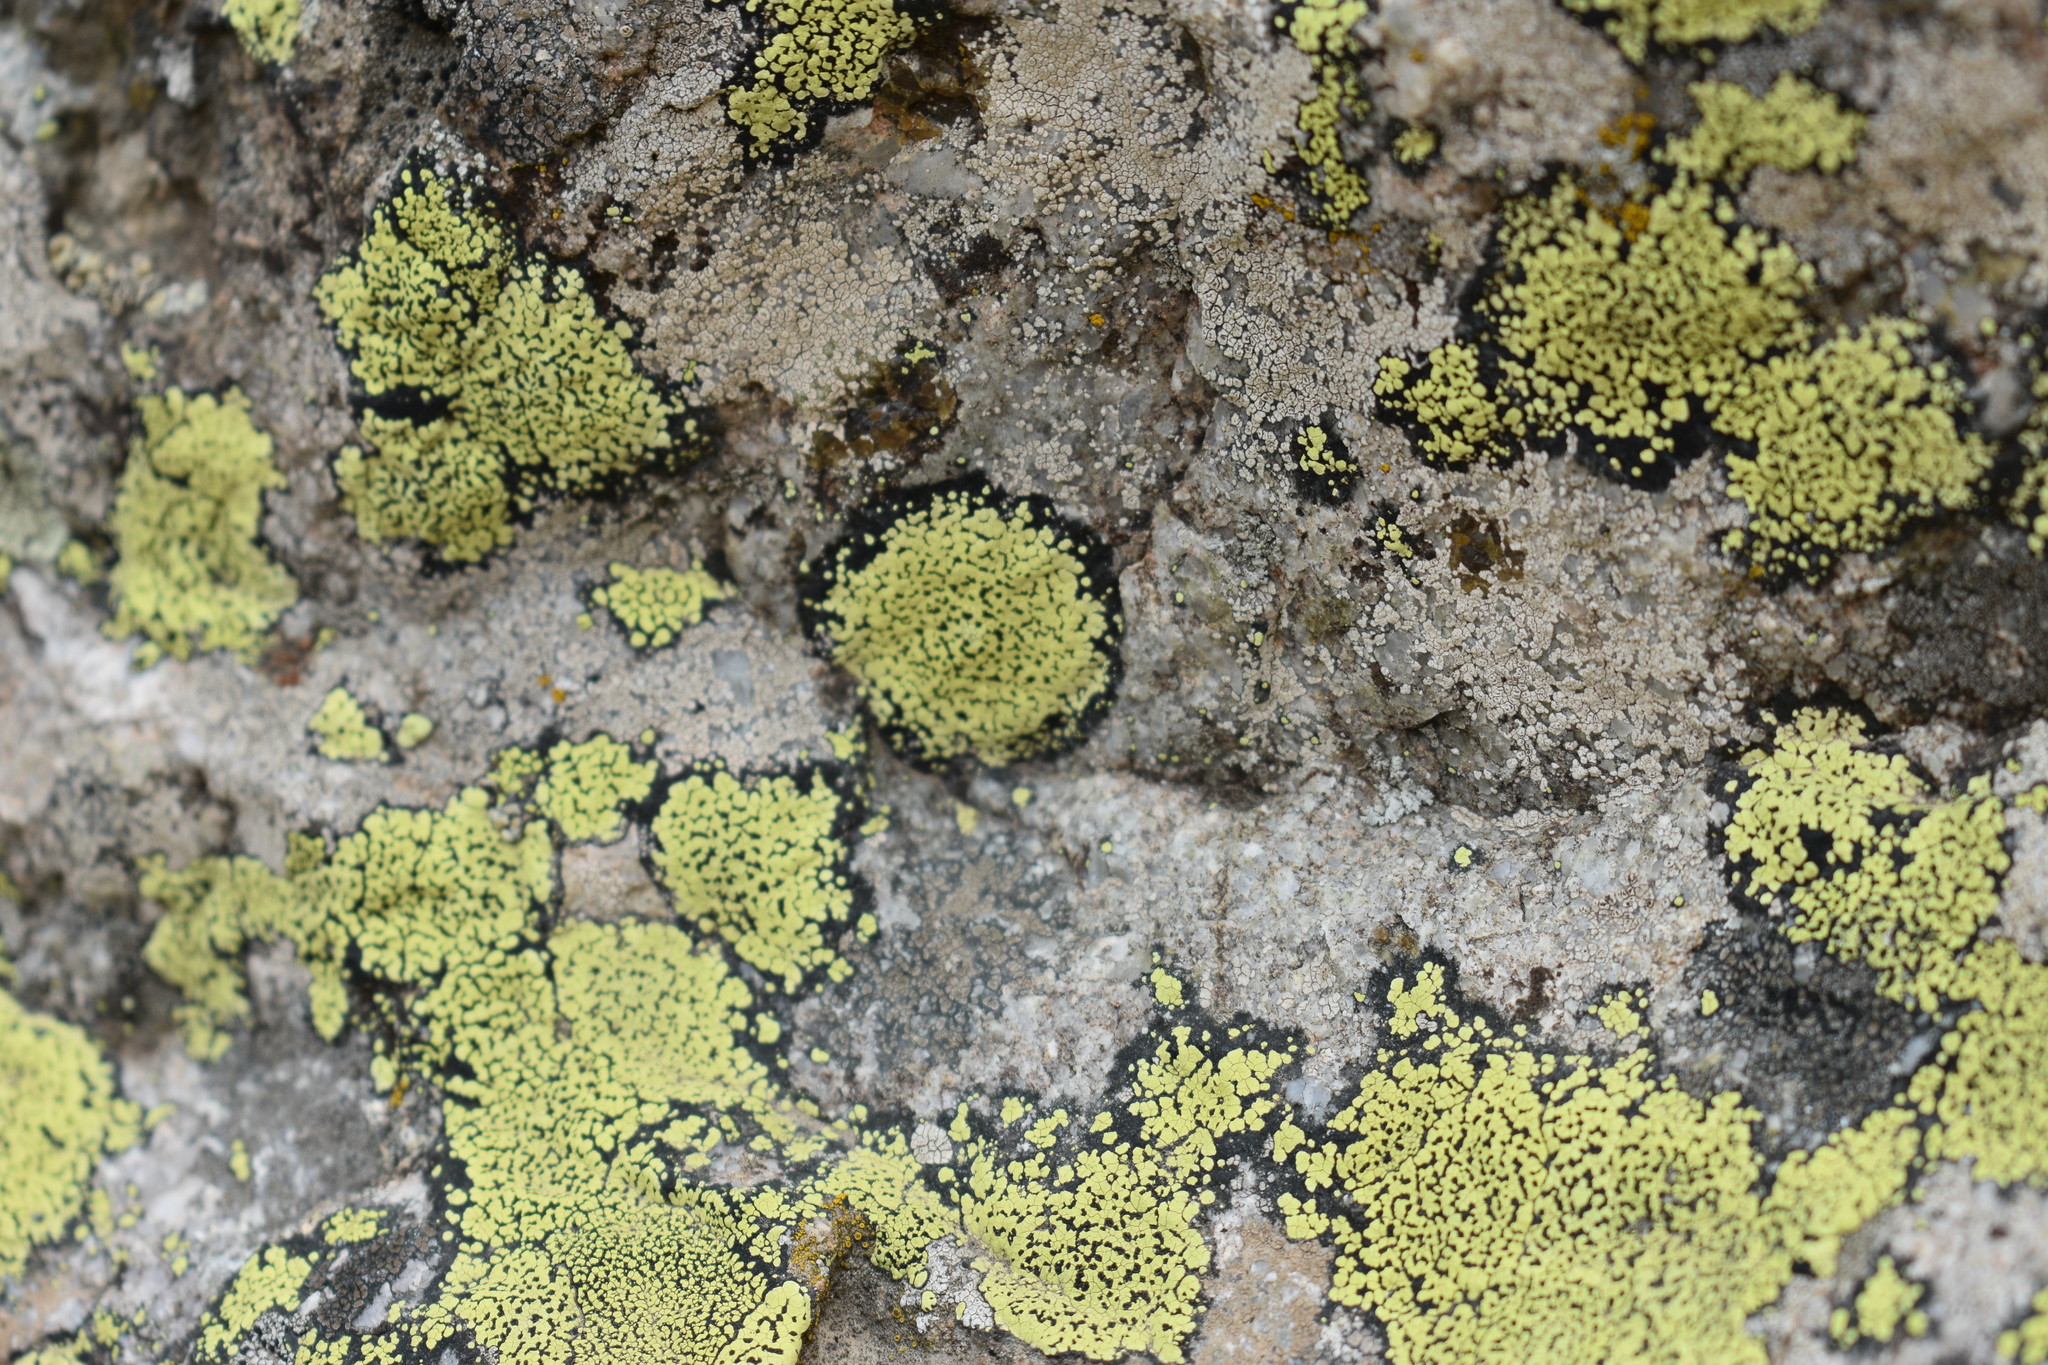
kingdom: Fungi
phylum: Ascomycota
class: Lecanoromycetes
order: Rhizocarpales
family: Rhizocarpaceae
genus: Rhizocarpon
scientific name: Rhizocarpon geographicum
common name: Yellow map lichen
